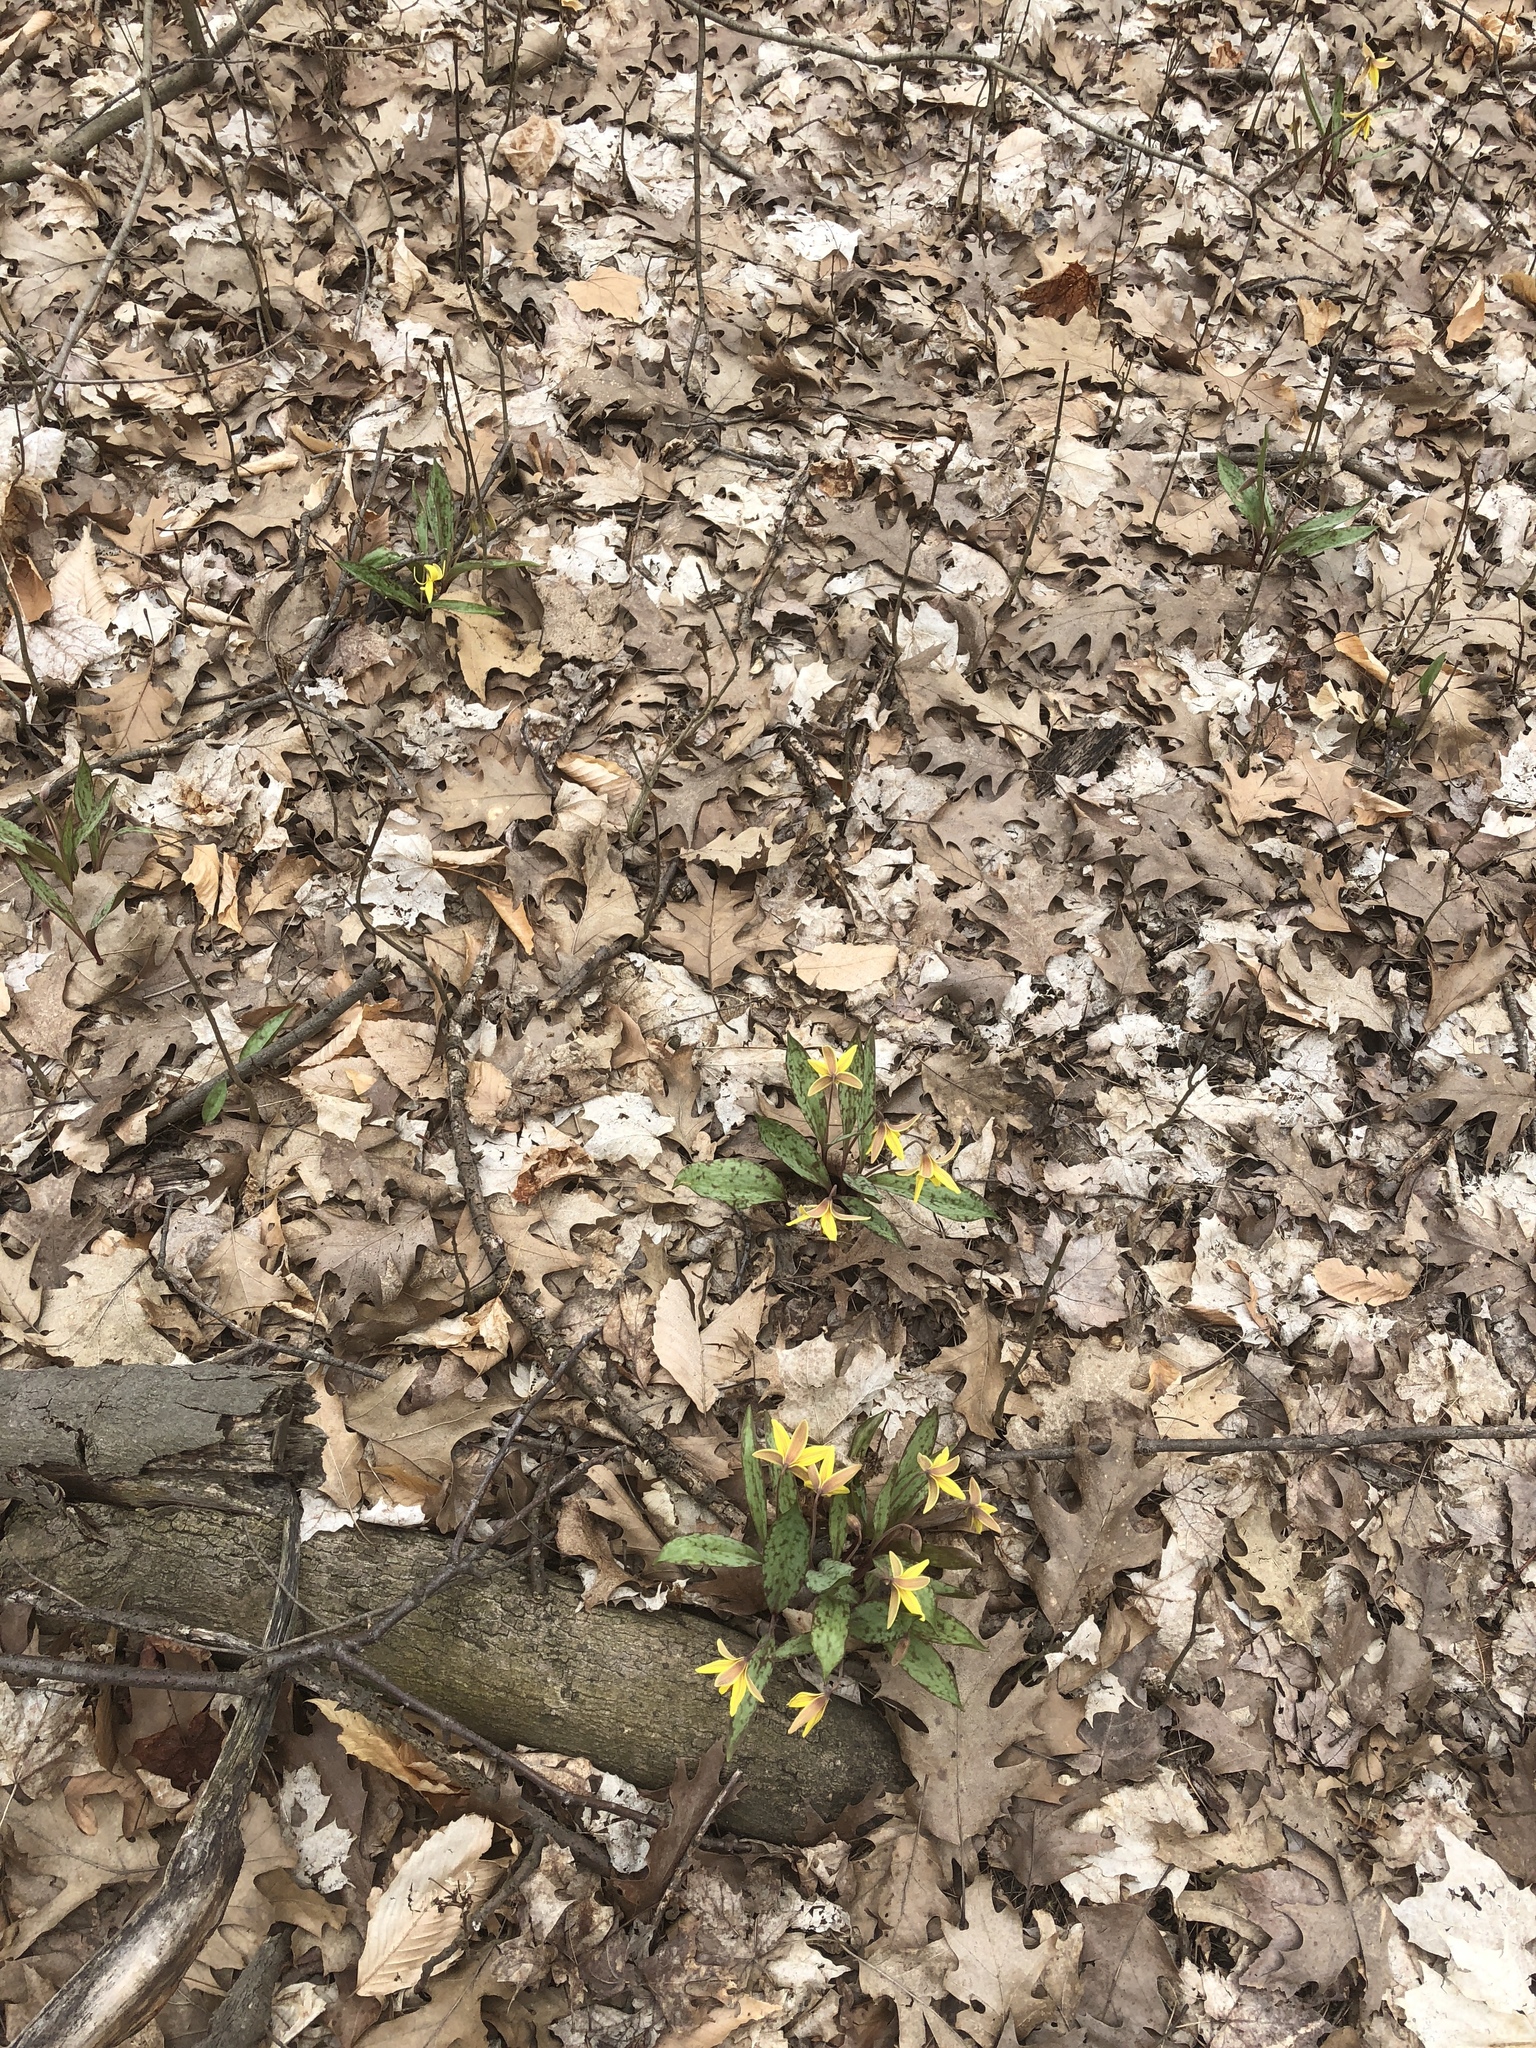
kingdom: Plantae
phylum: Tracheophyta
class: Liliopsida
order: Liliales
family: Liliaceae
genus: Erythronium
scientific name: Erythronium americanum
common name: Yellow adder's-tongue
